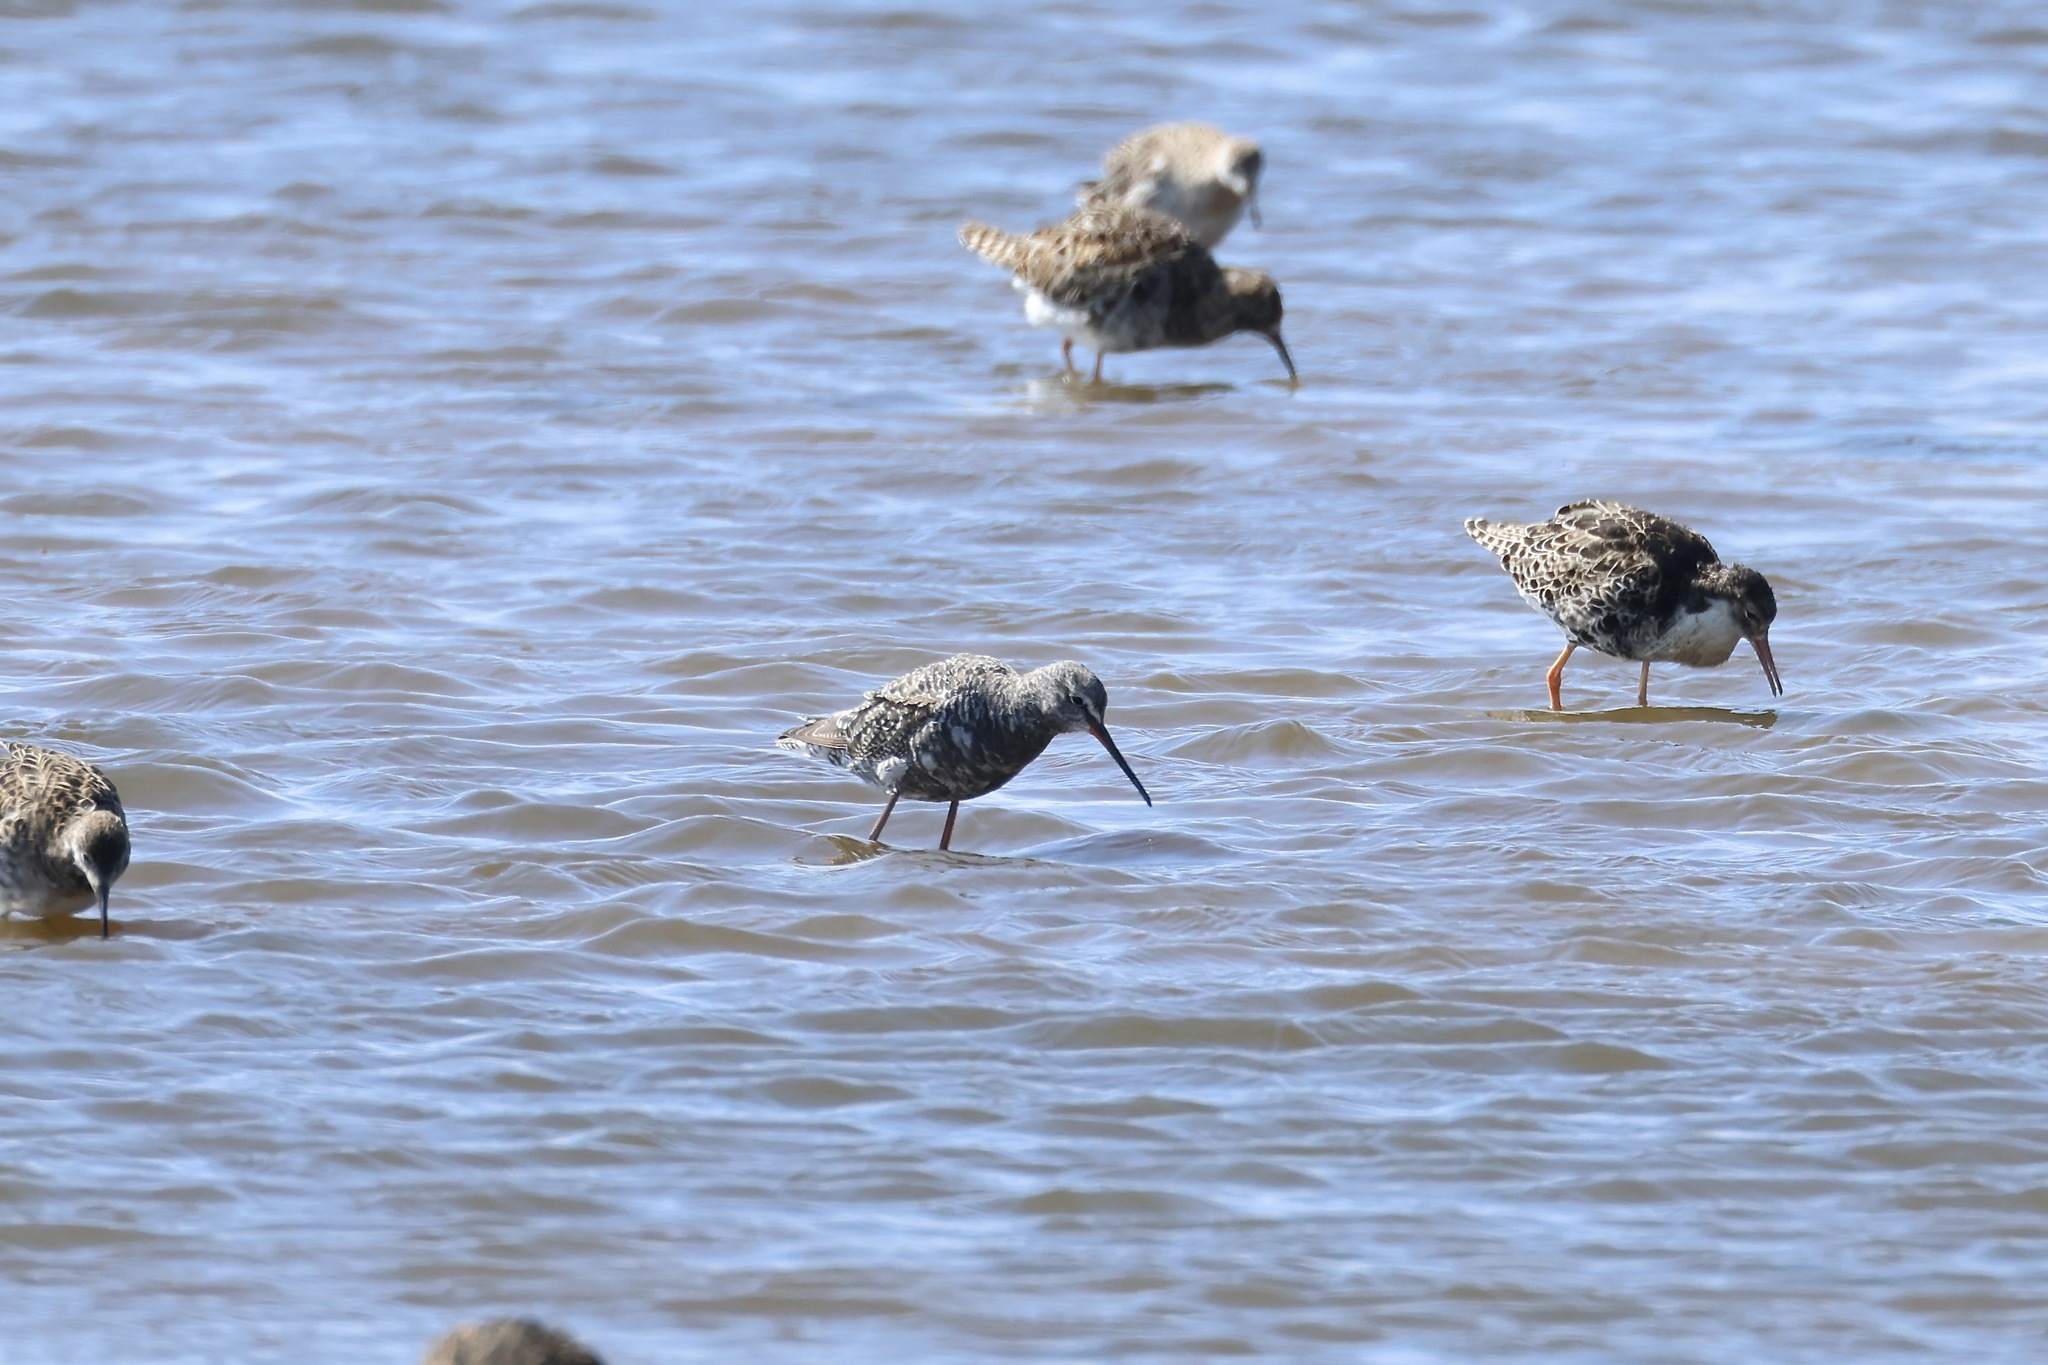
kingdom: Animalia
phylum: Chordata
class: Aves
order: Charadriiformes
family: Scolopacidae
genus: Tringa
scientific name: Tringa erythropus
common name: Spotted redshank
